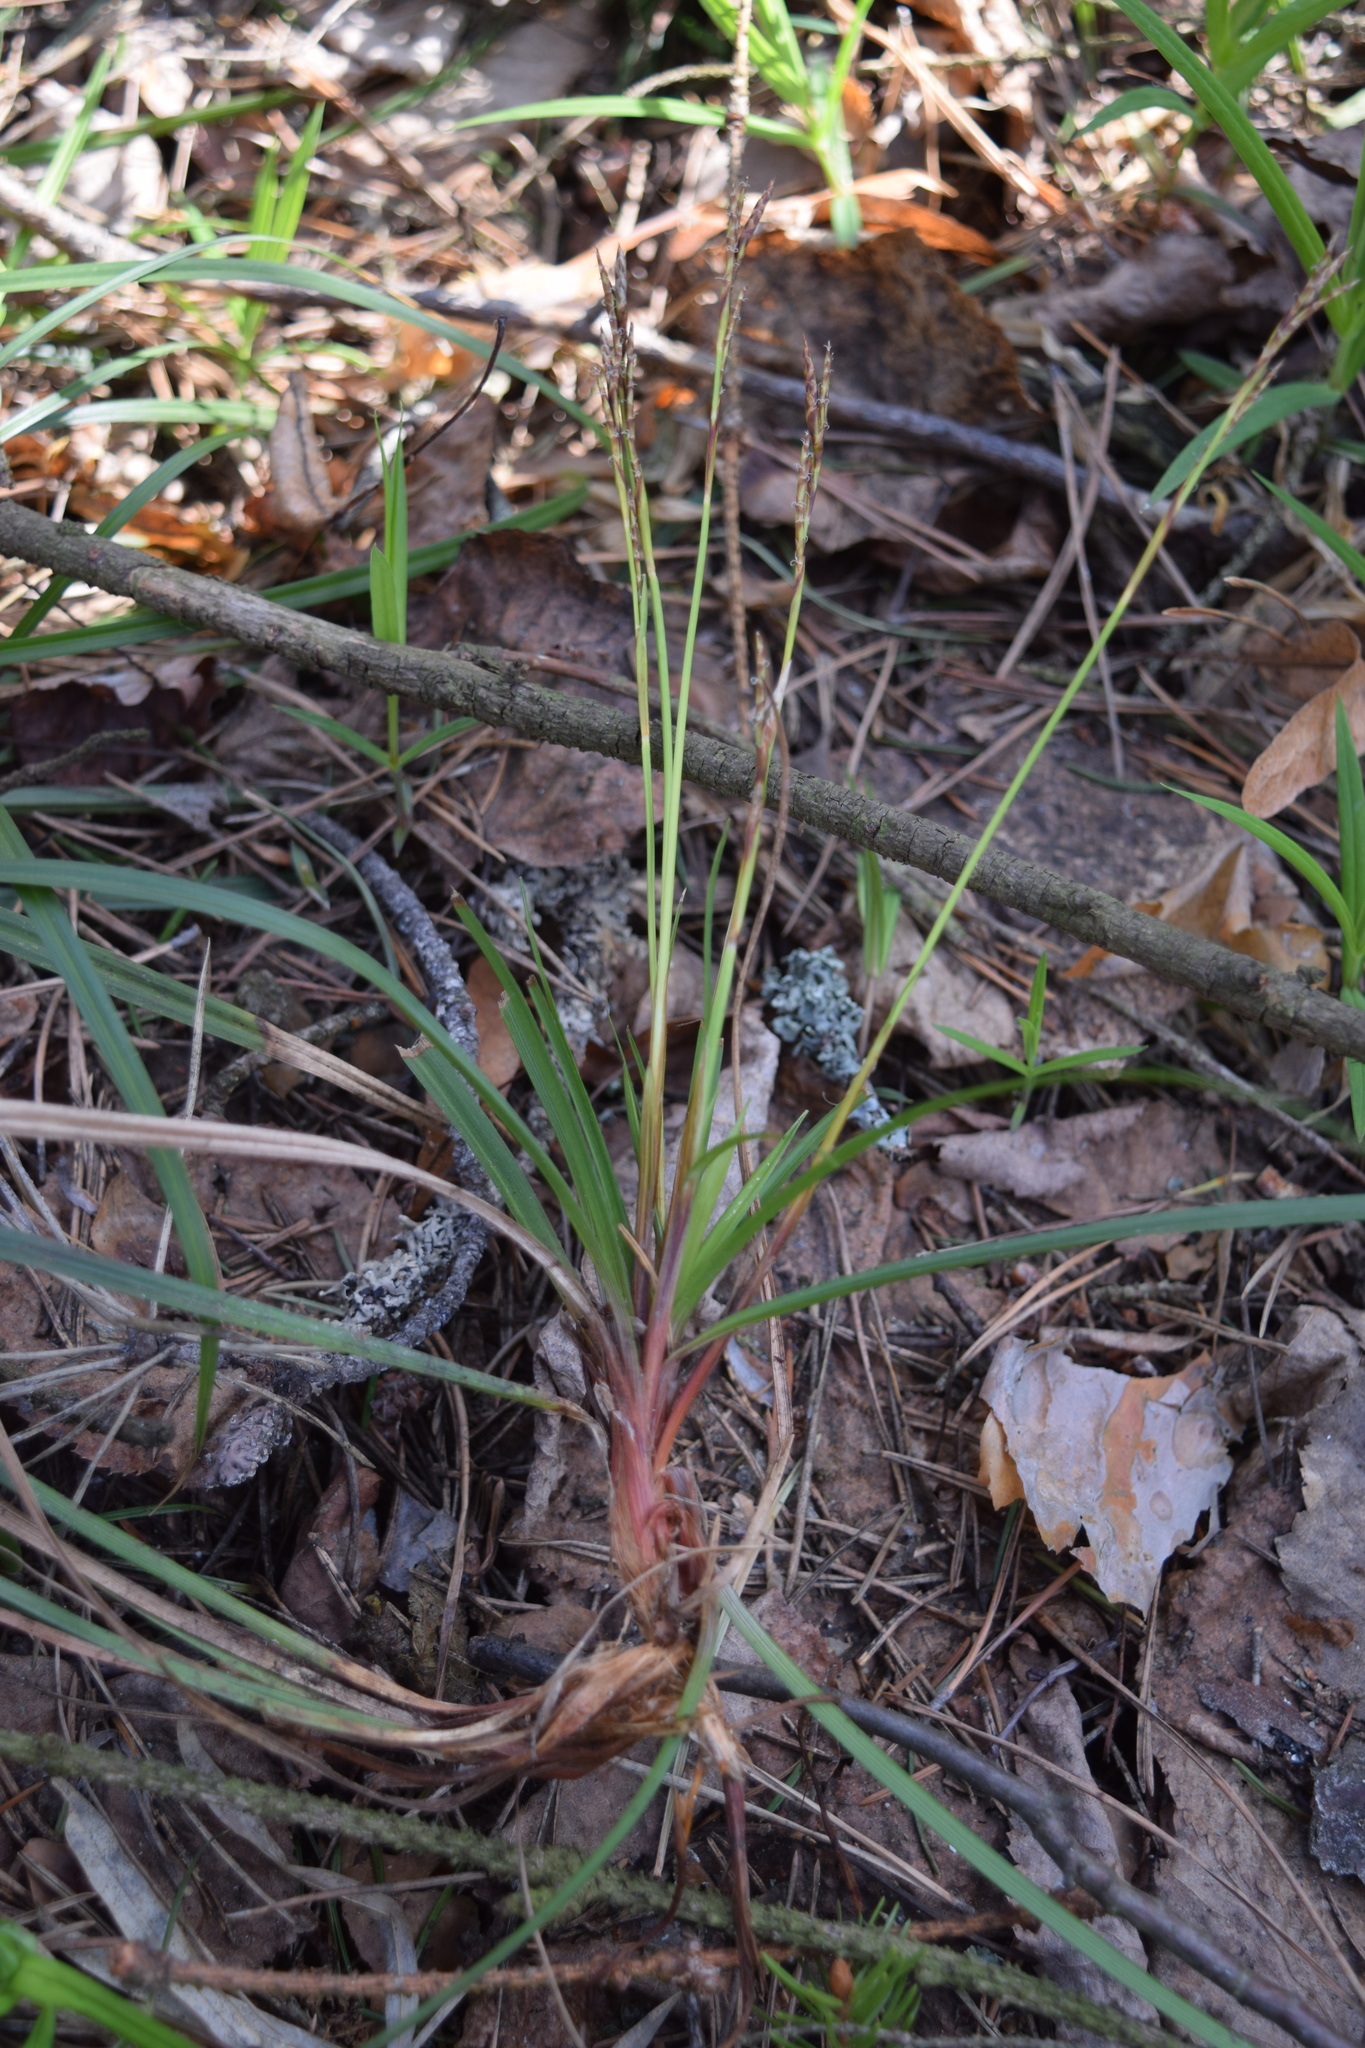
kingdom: Plantae
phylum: Tracheophyta
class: Liliopsida
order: Poales
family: Cyperaceae
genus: Carex
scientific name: Carex digitata
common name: Fingered sedge
